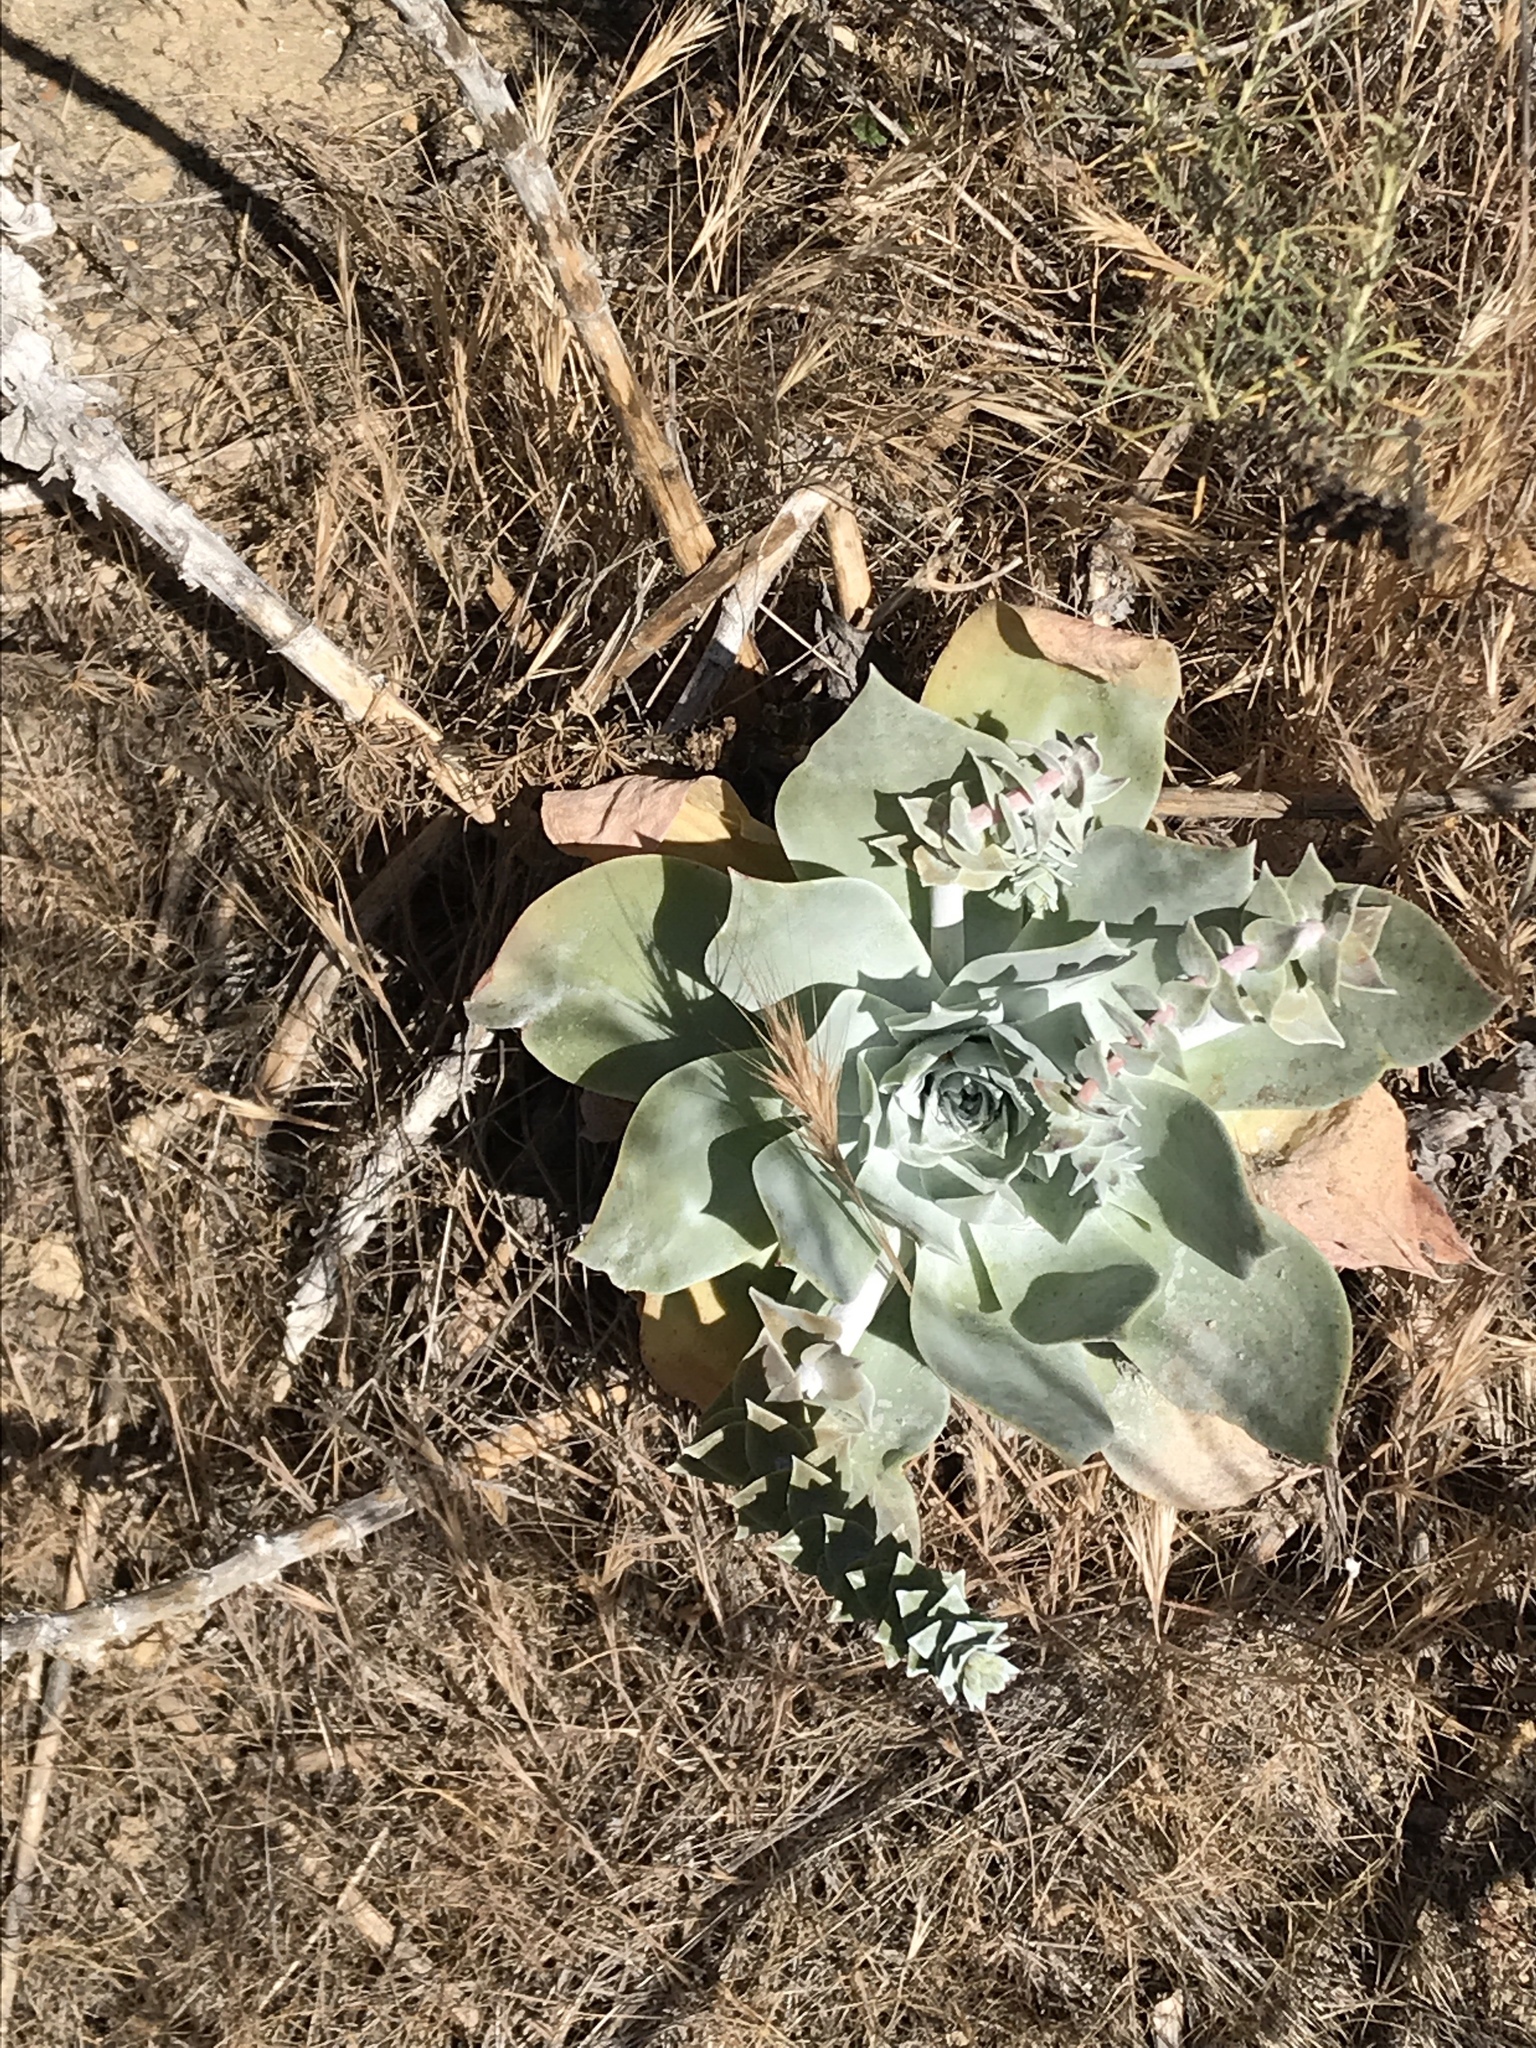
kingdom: Plantae
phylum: Tracheophyta
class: Magnoliopsida
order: Saxifragales
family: Crassulaceae
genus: Dudleya
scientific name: Dudleya pulverulenta
